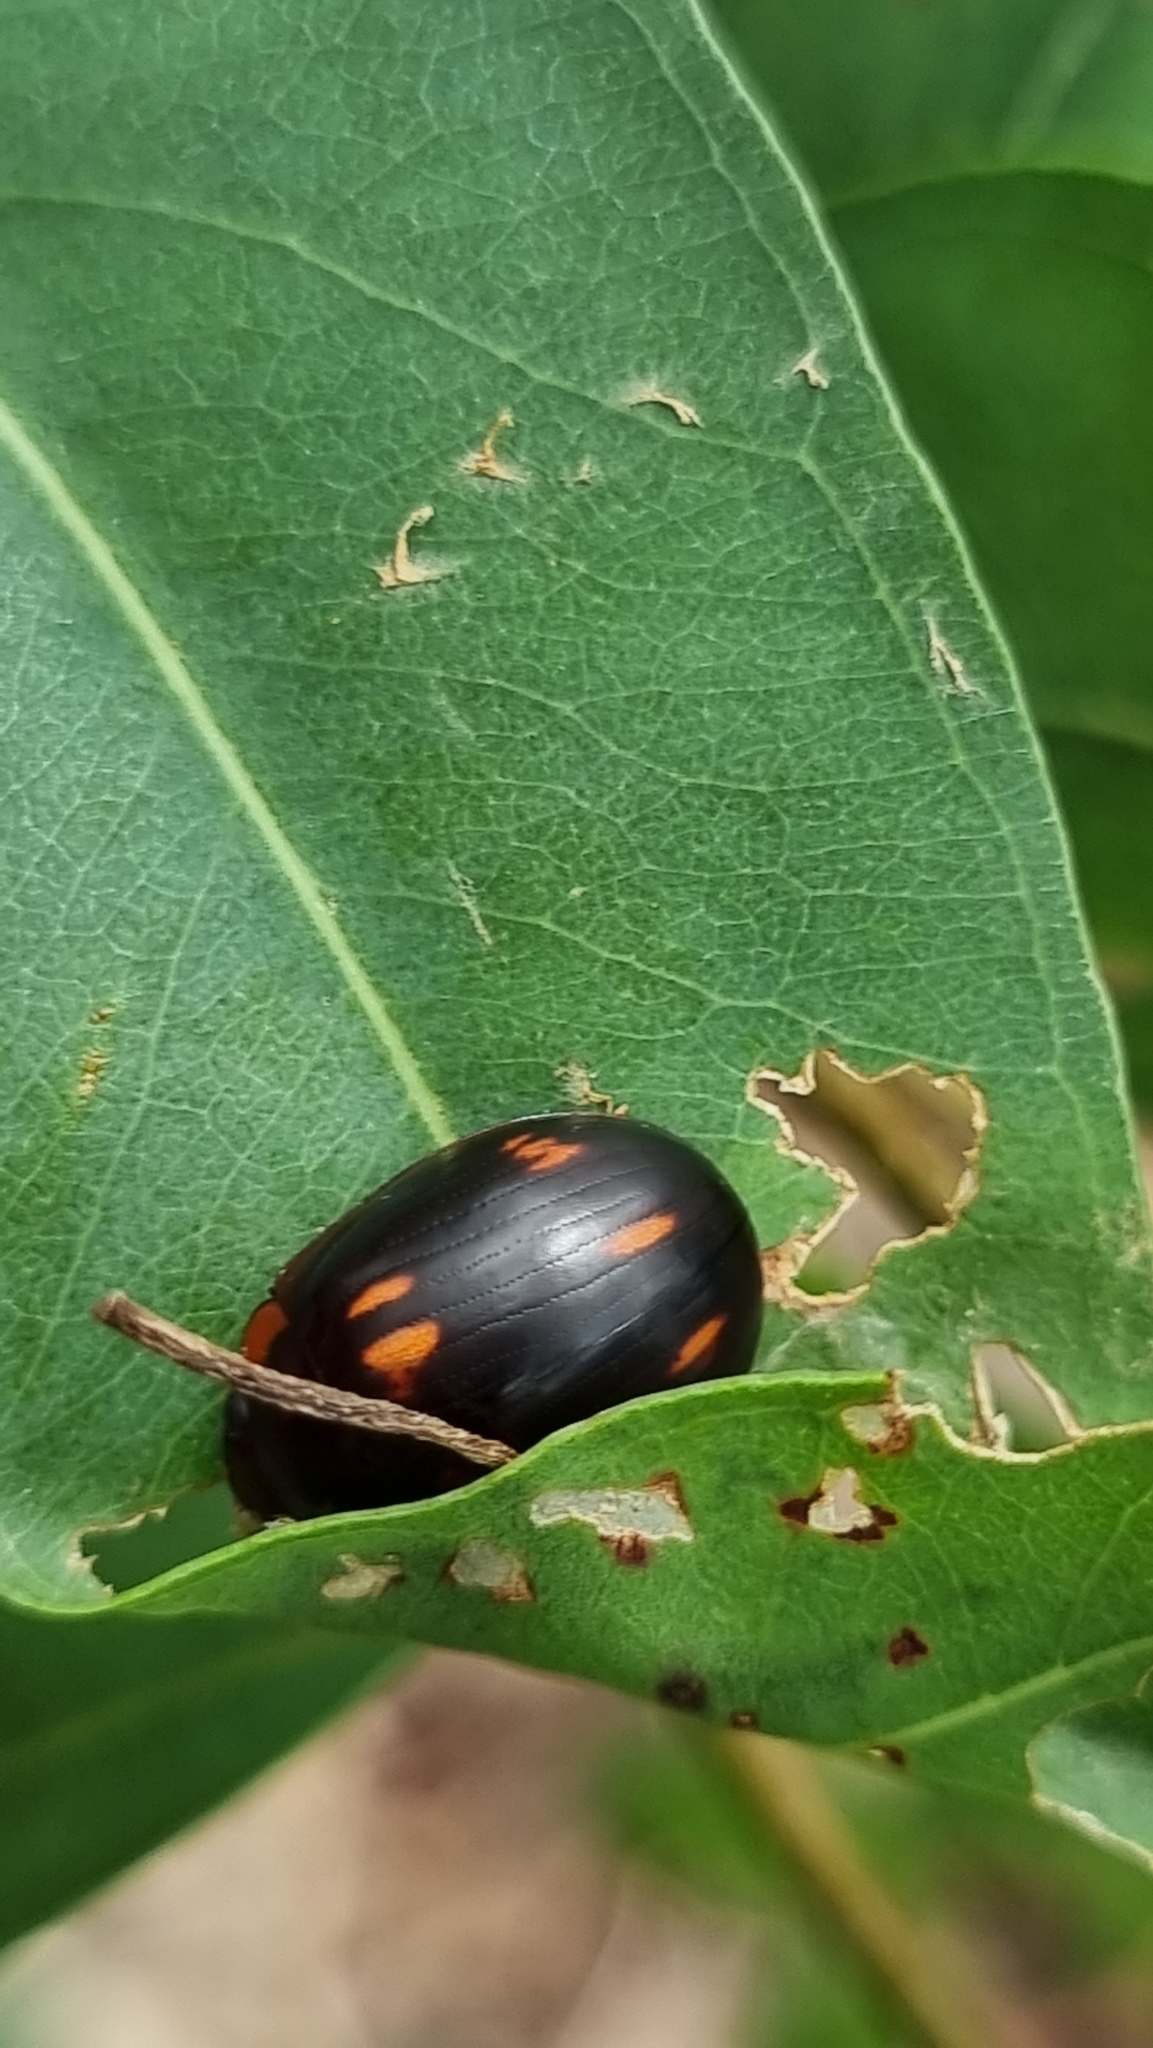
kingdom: Animalia
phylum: Arthropoda
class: Insecta
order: Coleoptera
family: Chrysomelidae
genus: Paropsisterna
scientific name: Paropsisterna
